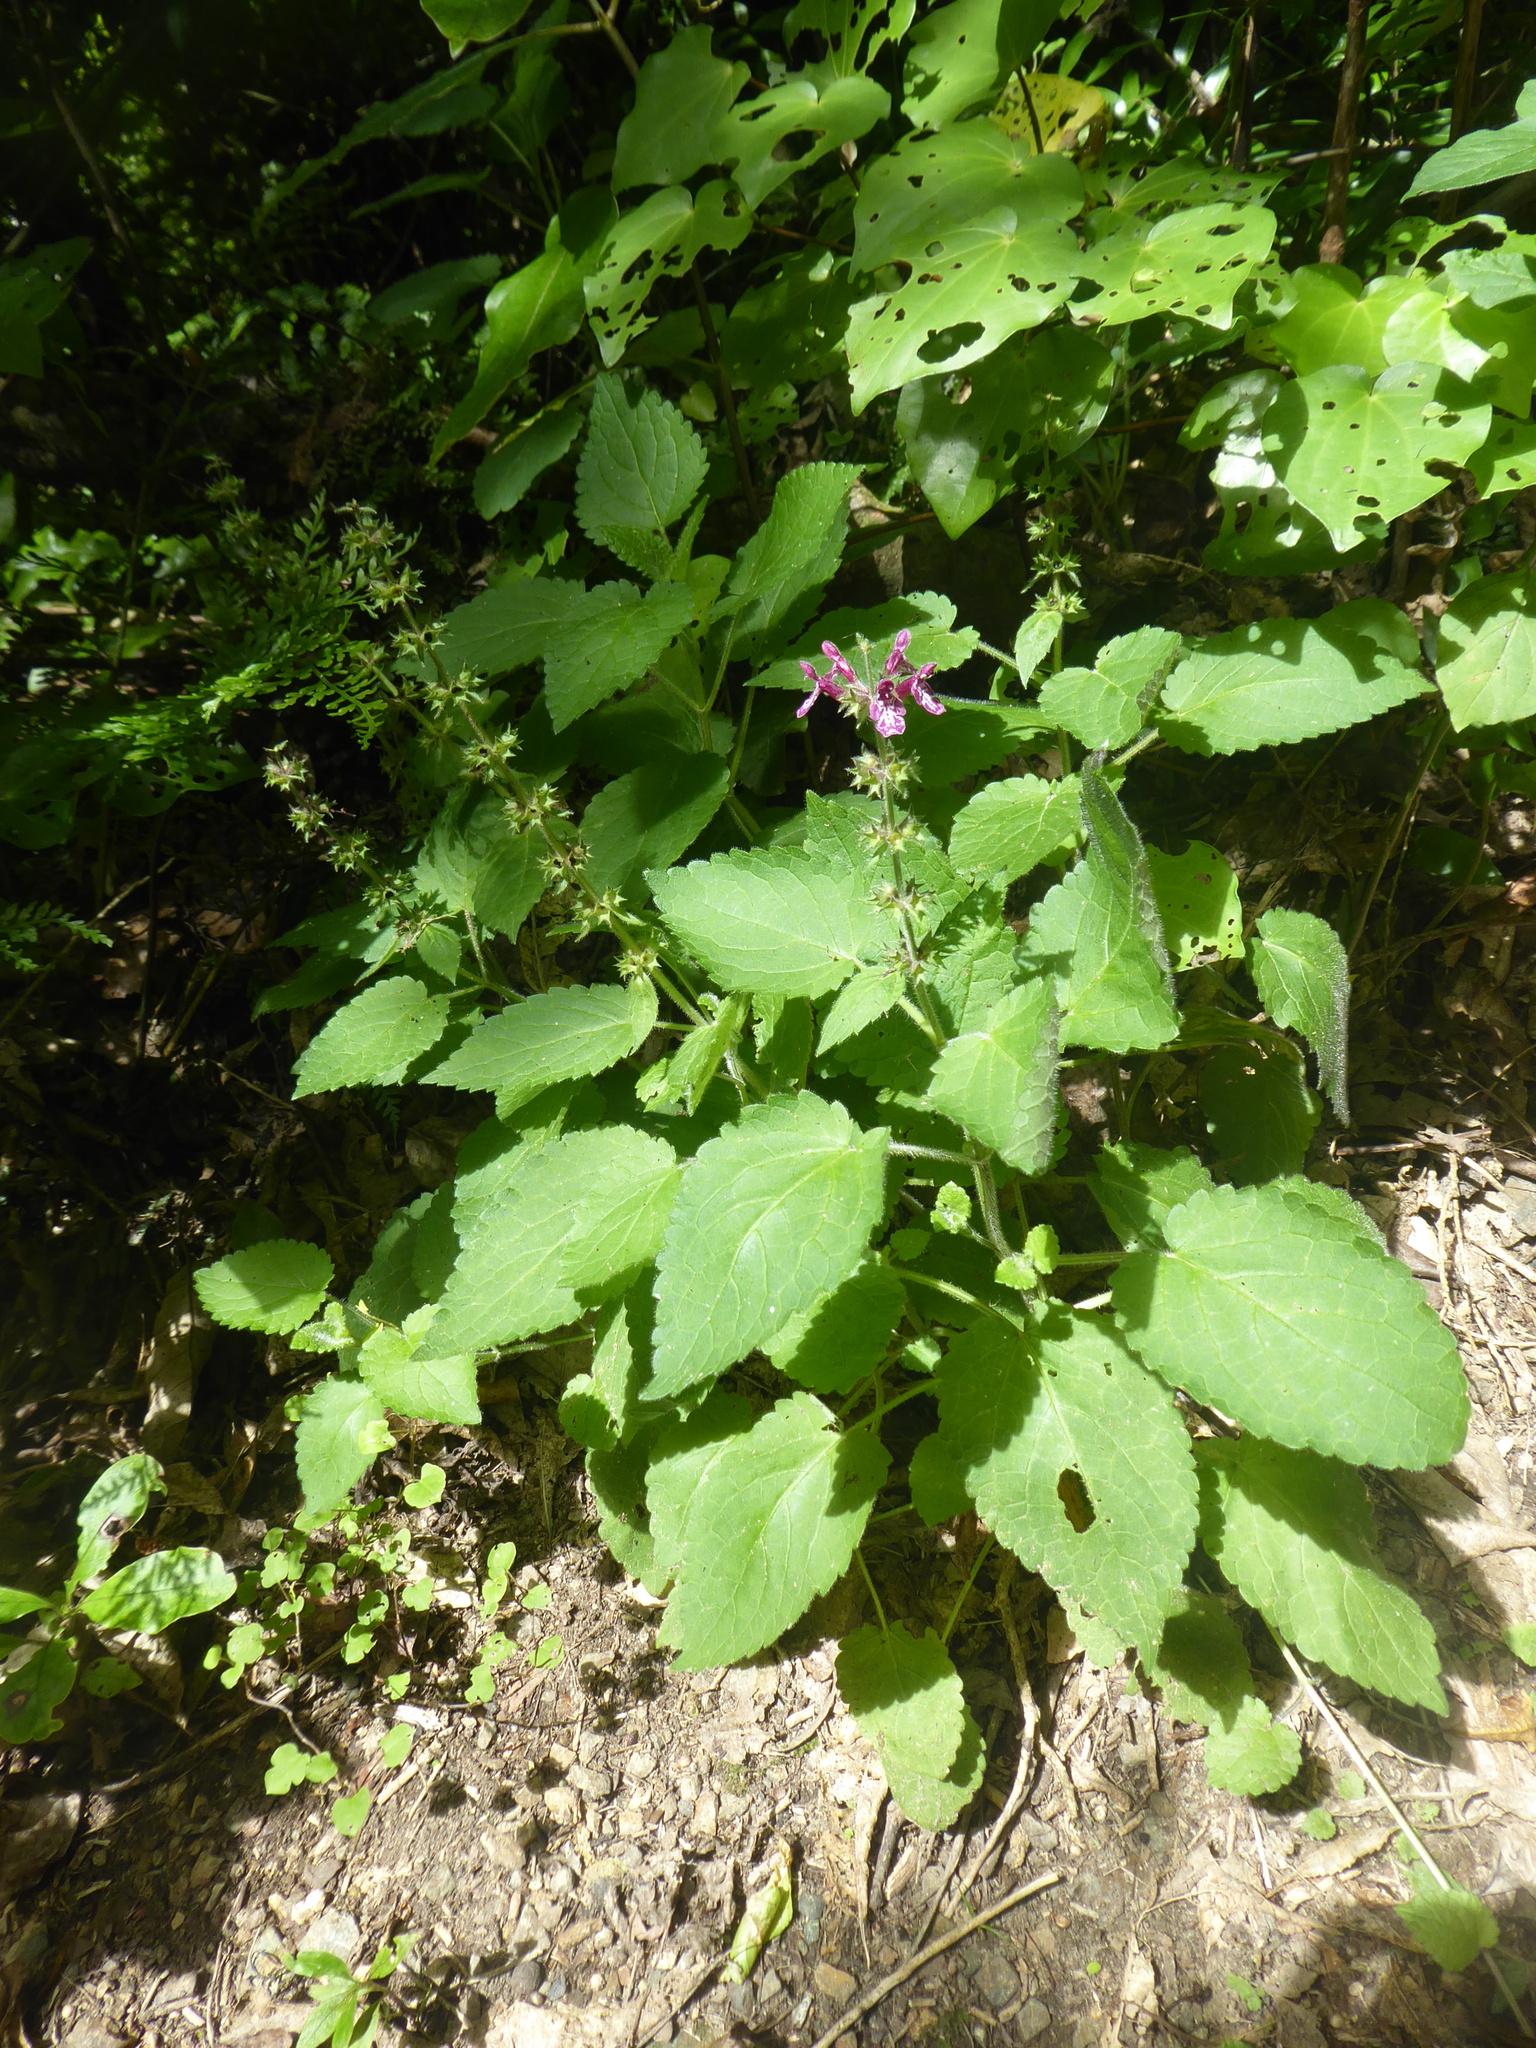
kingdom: Plantae
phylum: Tracheophyta
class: Magnoliopsida
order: Lamiales
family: Lamiaceae
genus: Stachys
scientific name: Stachys sylvatica
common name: Hedge woundwort
